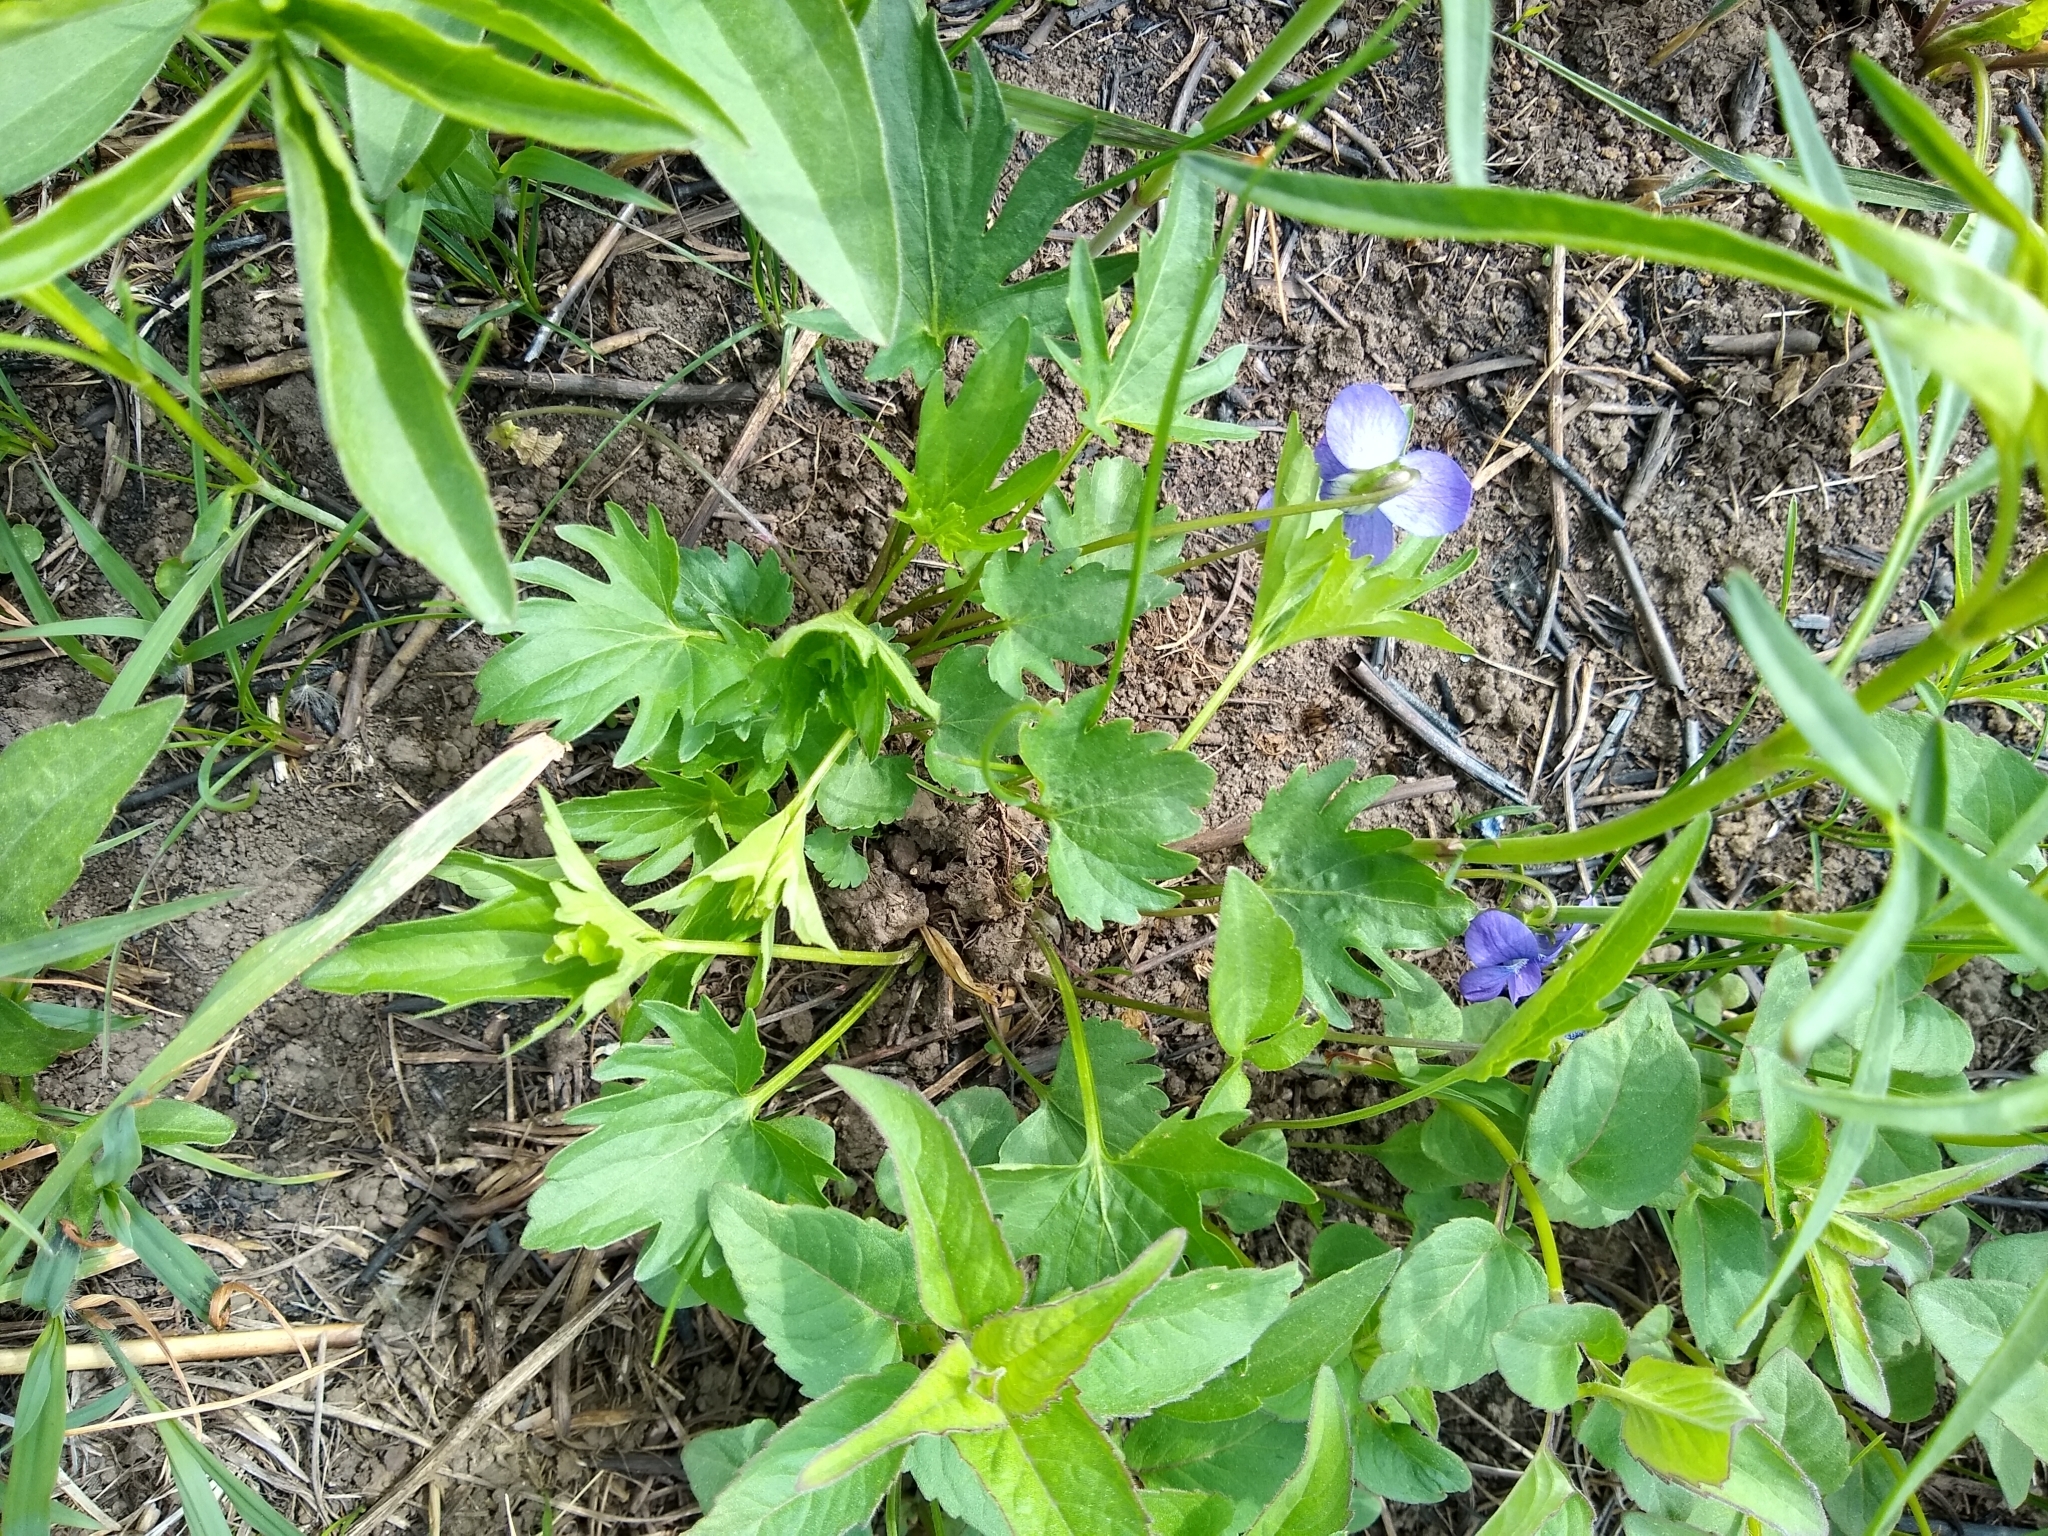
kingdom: Plantae
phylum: Tracheophyta
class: Magnoliopsida
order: Malpighiales
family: Violaceae
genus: Viola
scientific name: Viola pedatifida
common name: Prairie violet
